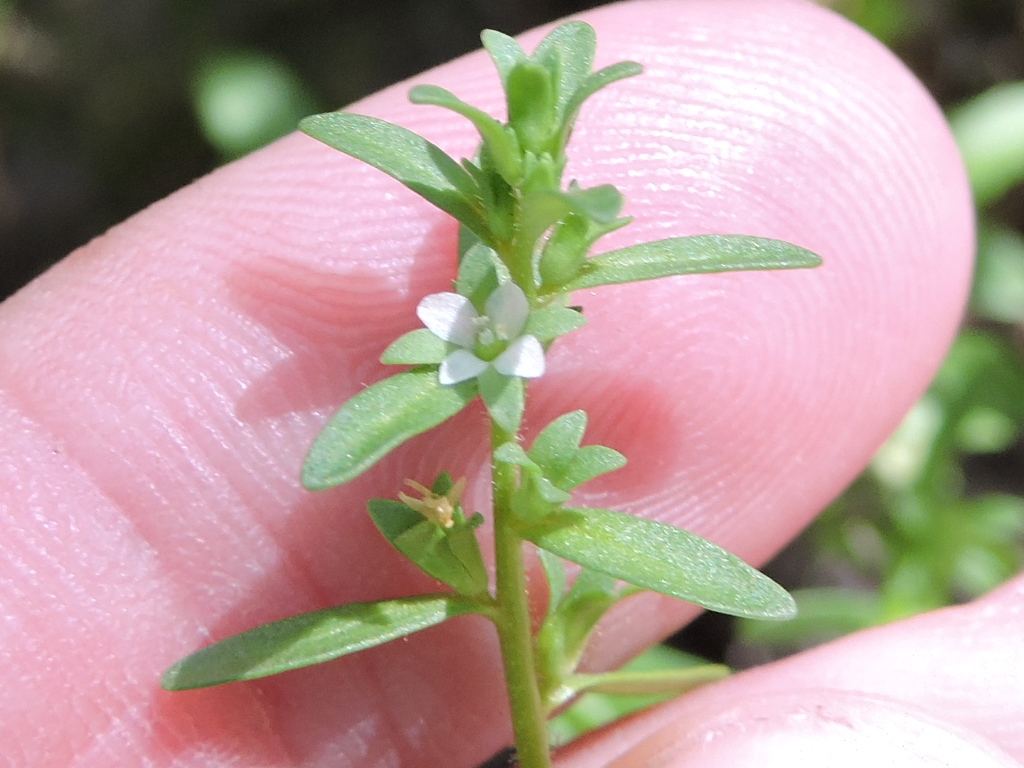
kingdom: Plantae
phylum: Tracheophyta
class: Magnoliopsida
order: Lamiales
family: Plantaginaceae
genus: Veronica
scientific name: Veronica peregrina
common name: Neckweed
